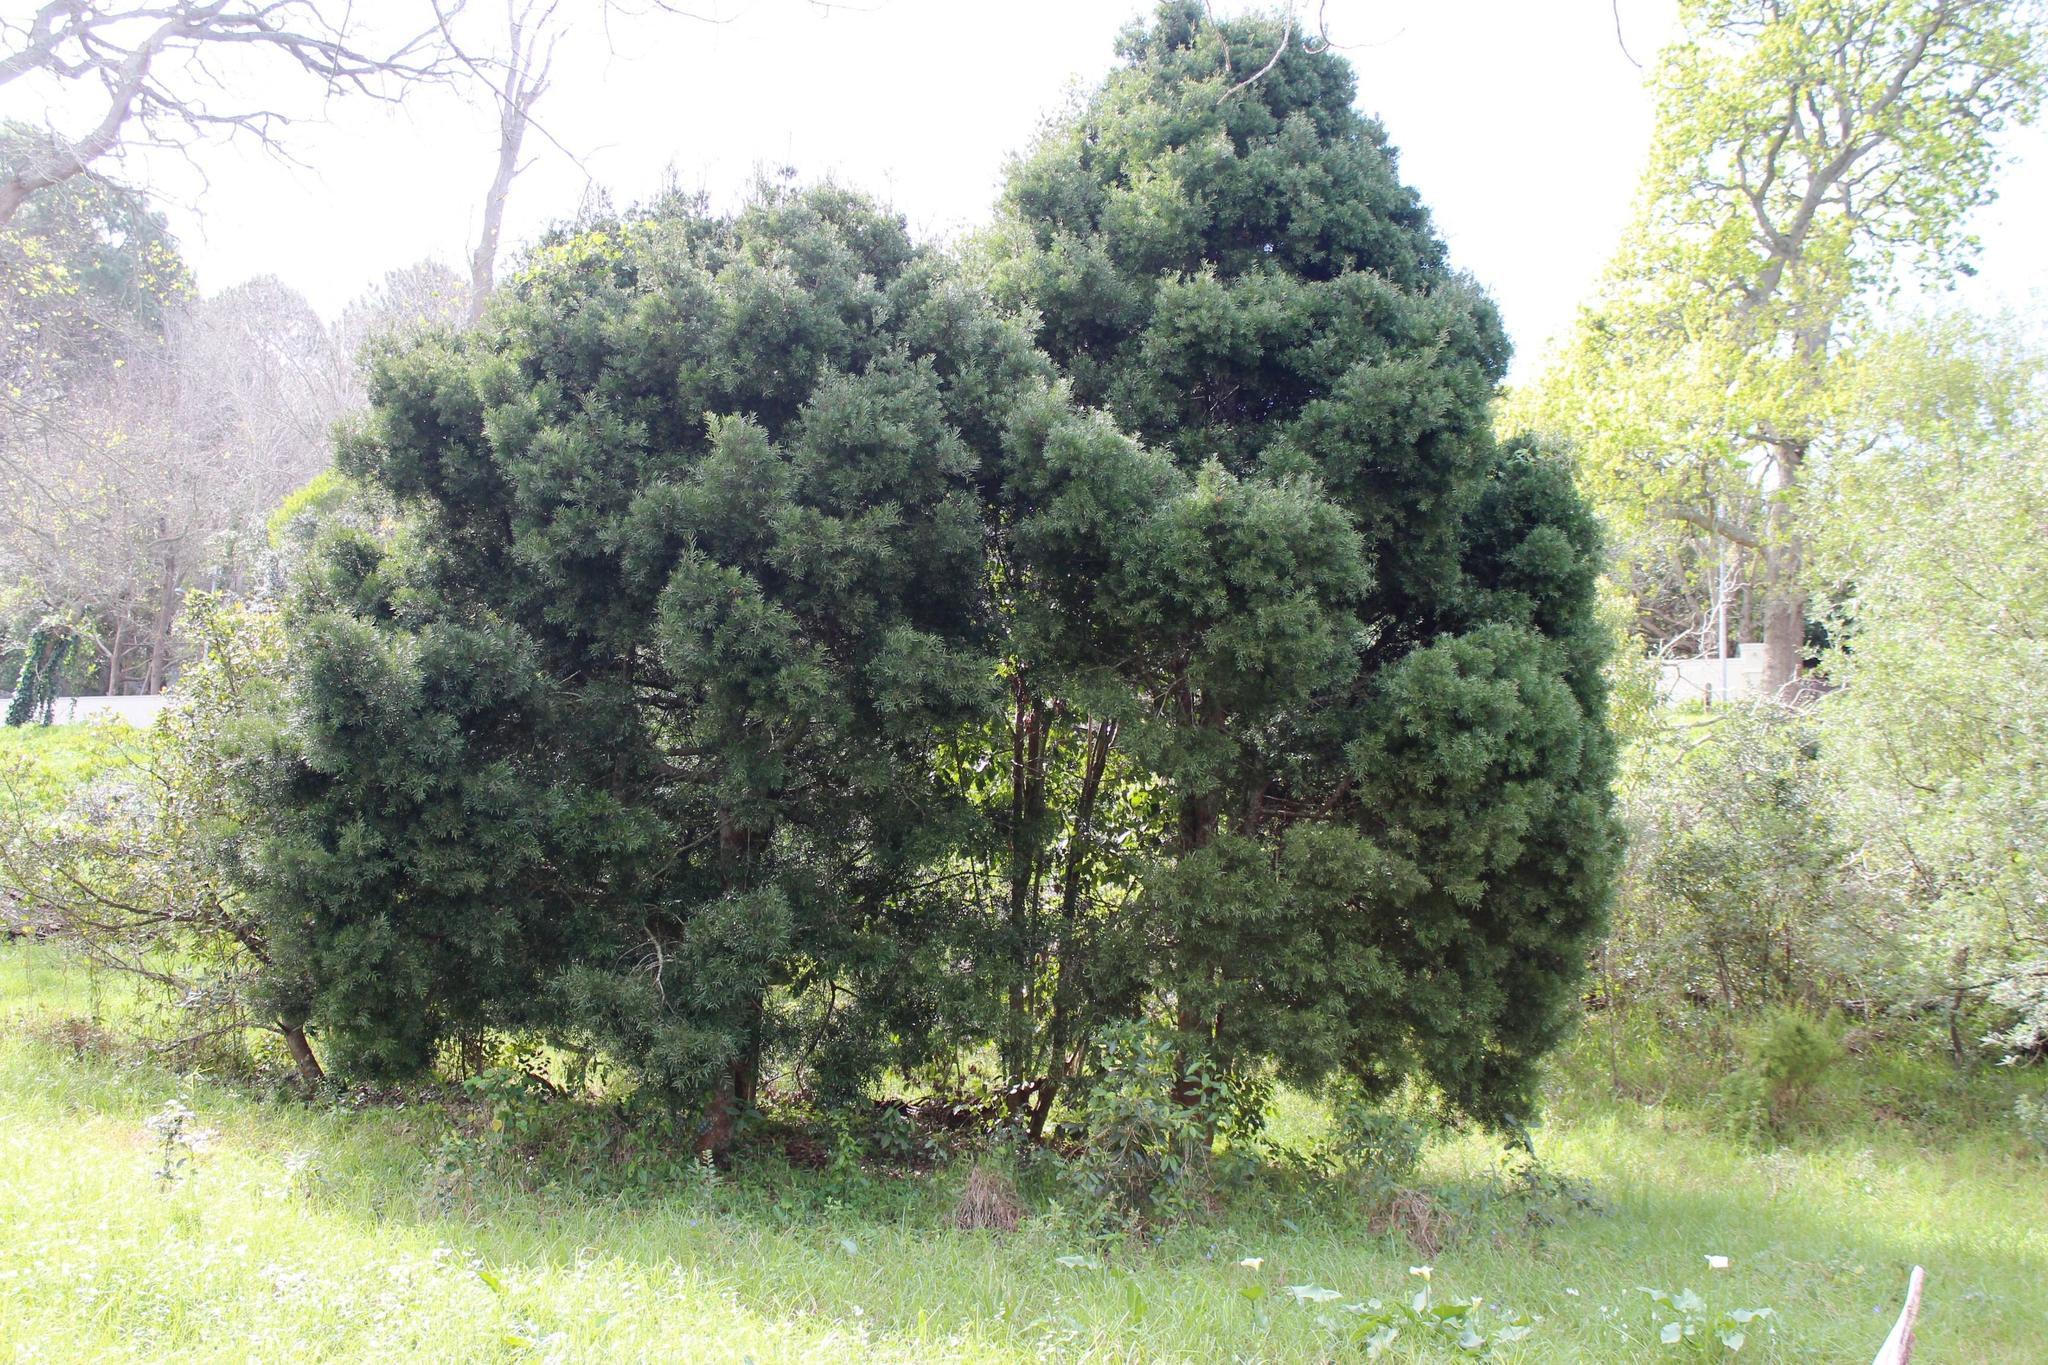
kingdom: Plantae
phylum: Tracheophyta
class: Pinopsida
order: Pinales
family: Podocarpaceae
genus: Afrocarpus
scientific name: Afrocarpus falcatus
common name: Bastard yellowwood
